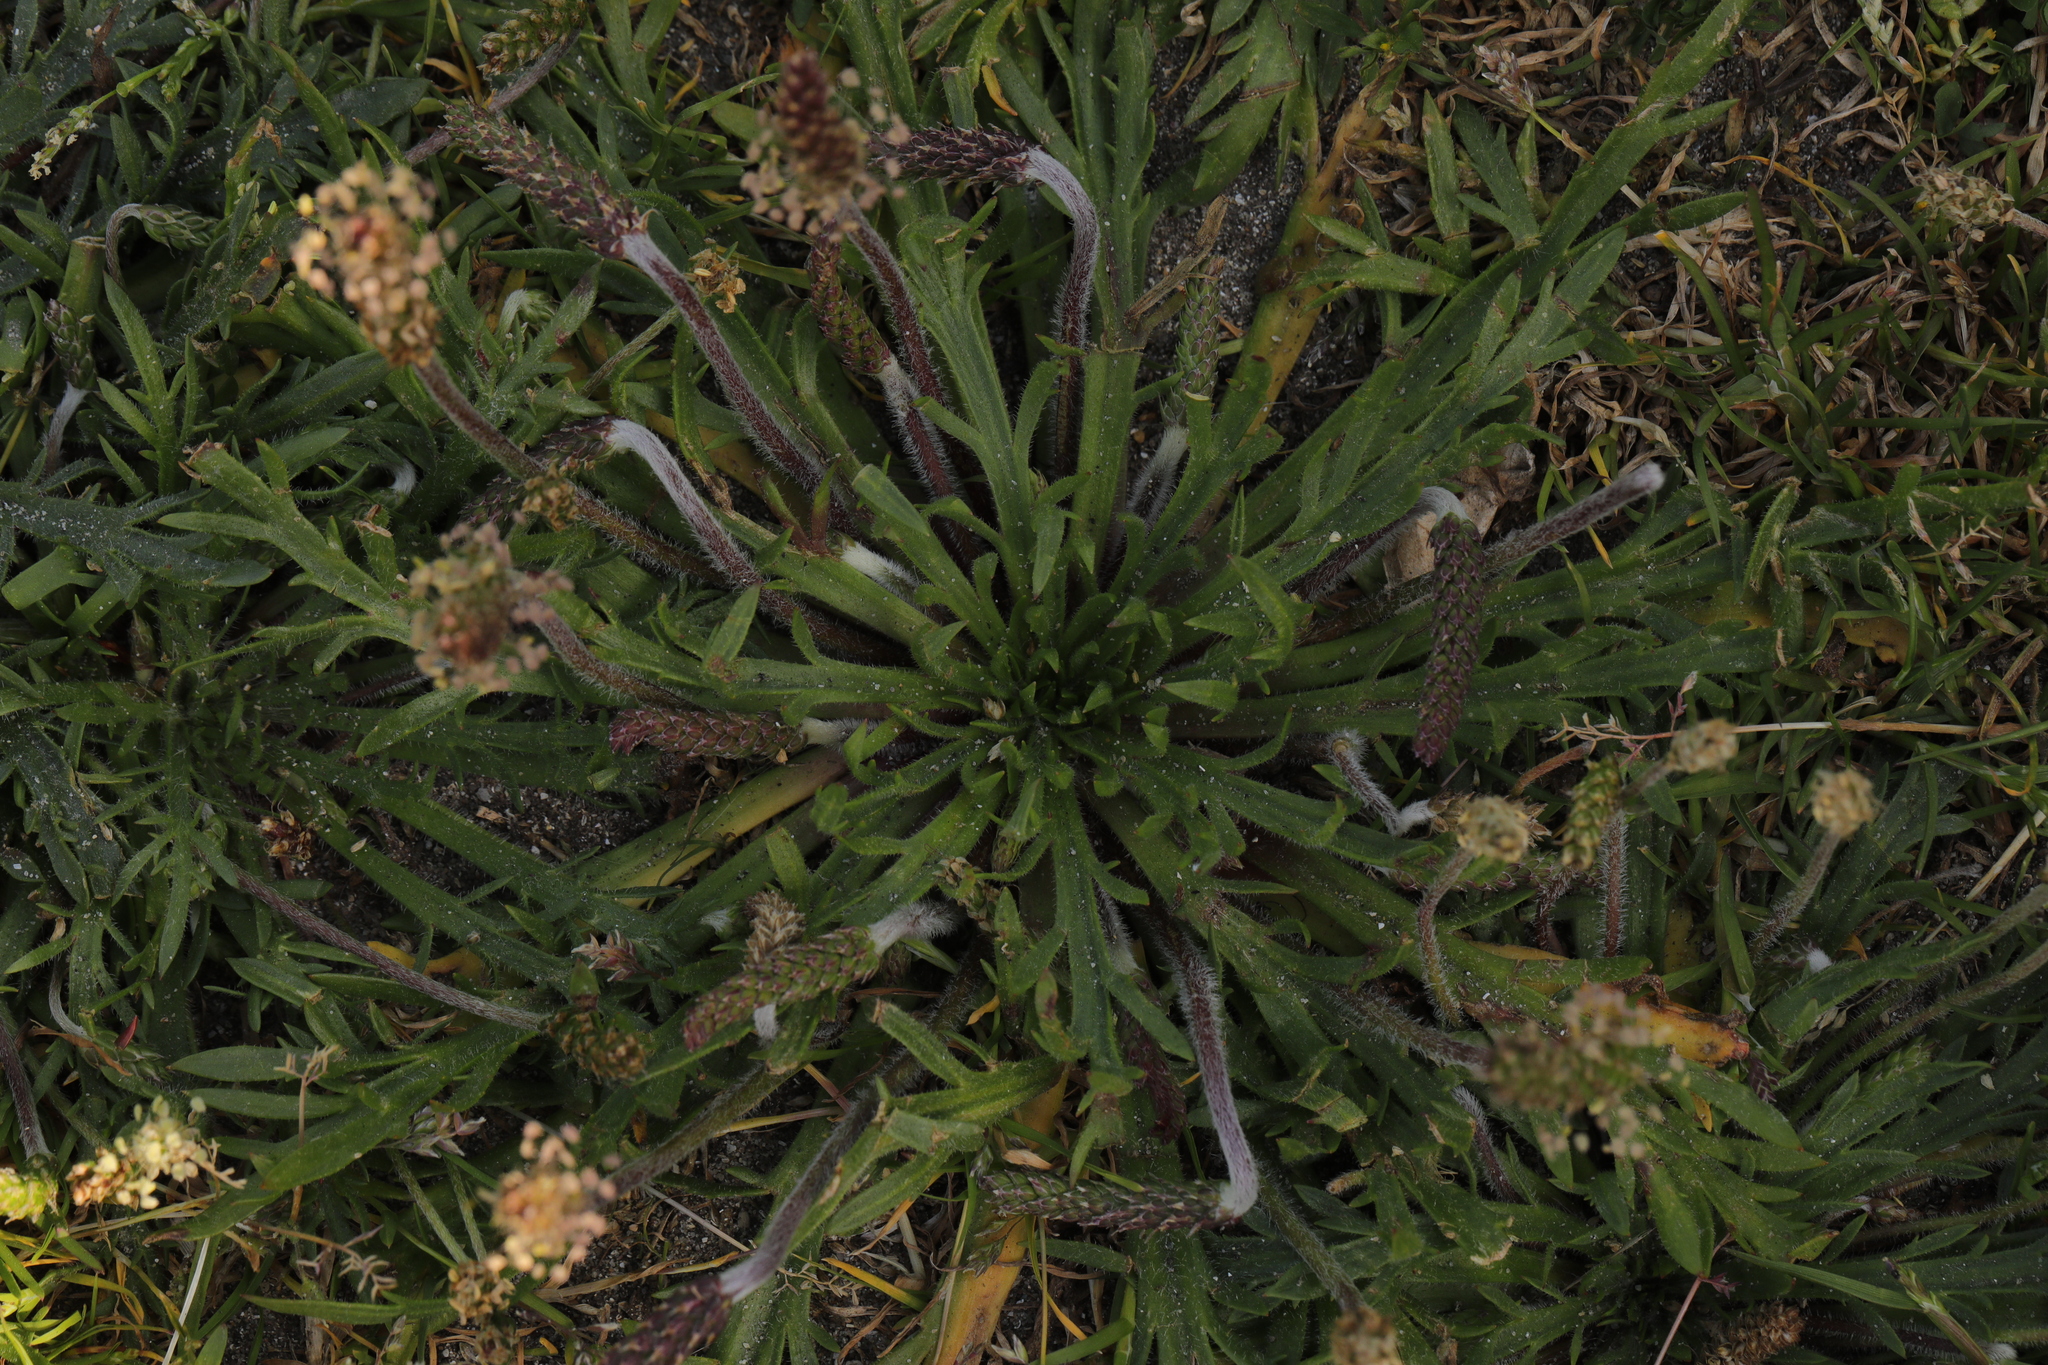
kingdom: Plantae
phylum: Tracheophyta
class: Magnoliopsida
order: Lamiales
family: Plantaginaceae
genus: Plantago
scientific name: Plantago coronopus
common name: Buck's-horn plantain
